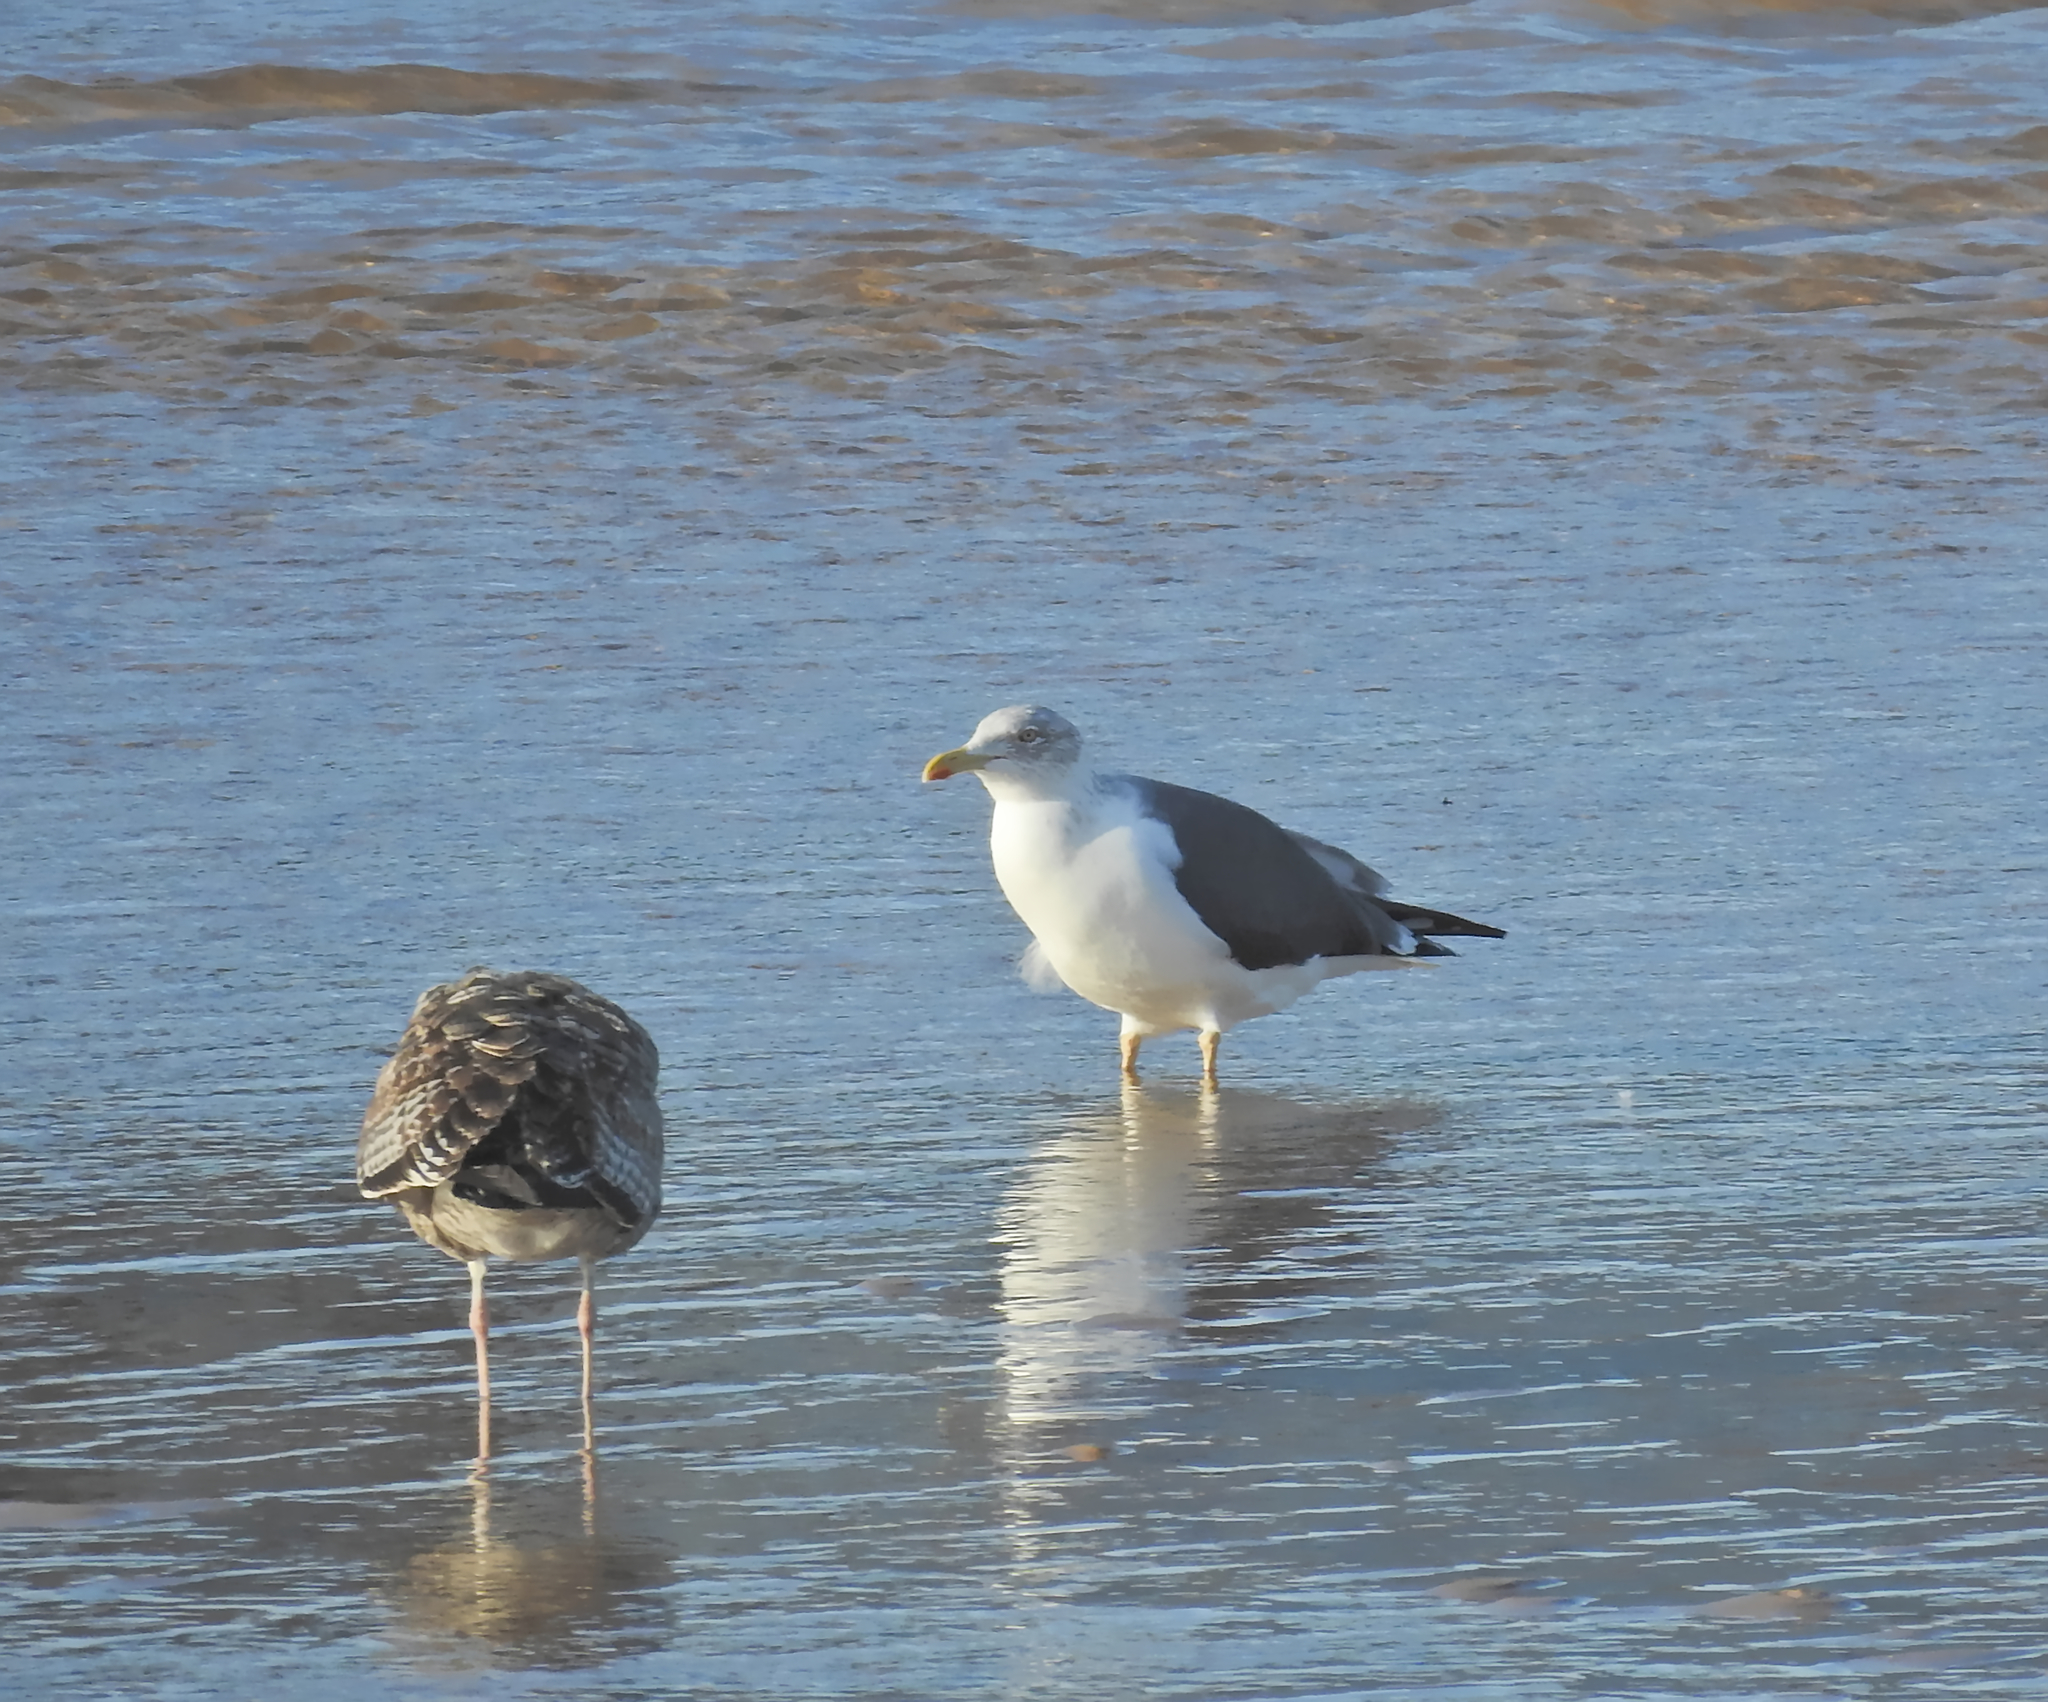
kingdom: Animalia
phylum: Chordata
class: Aves
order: Charadriiformes
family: Laridae
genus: Larus
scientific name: Larus fuscus
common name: Lesser black-backed gull
